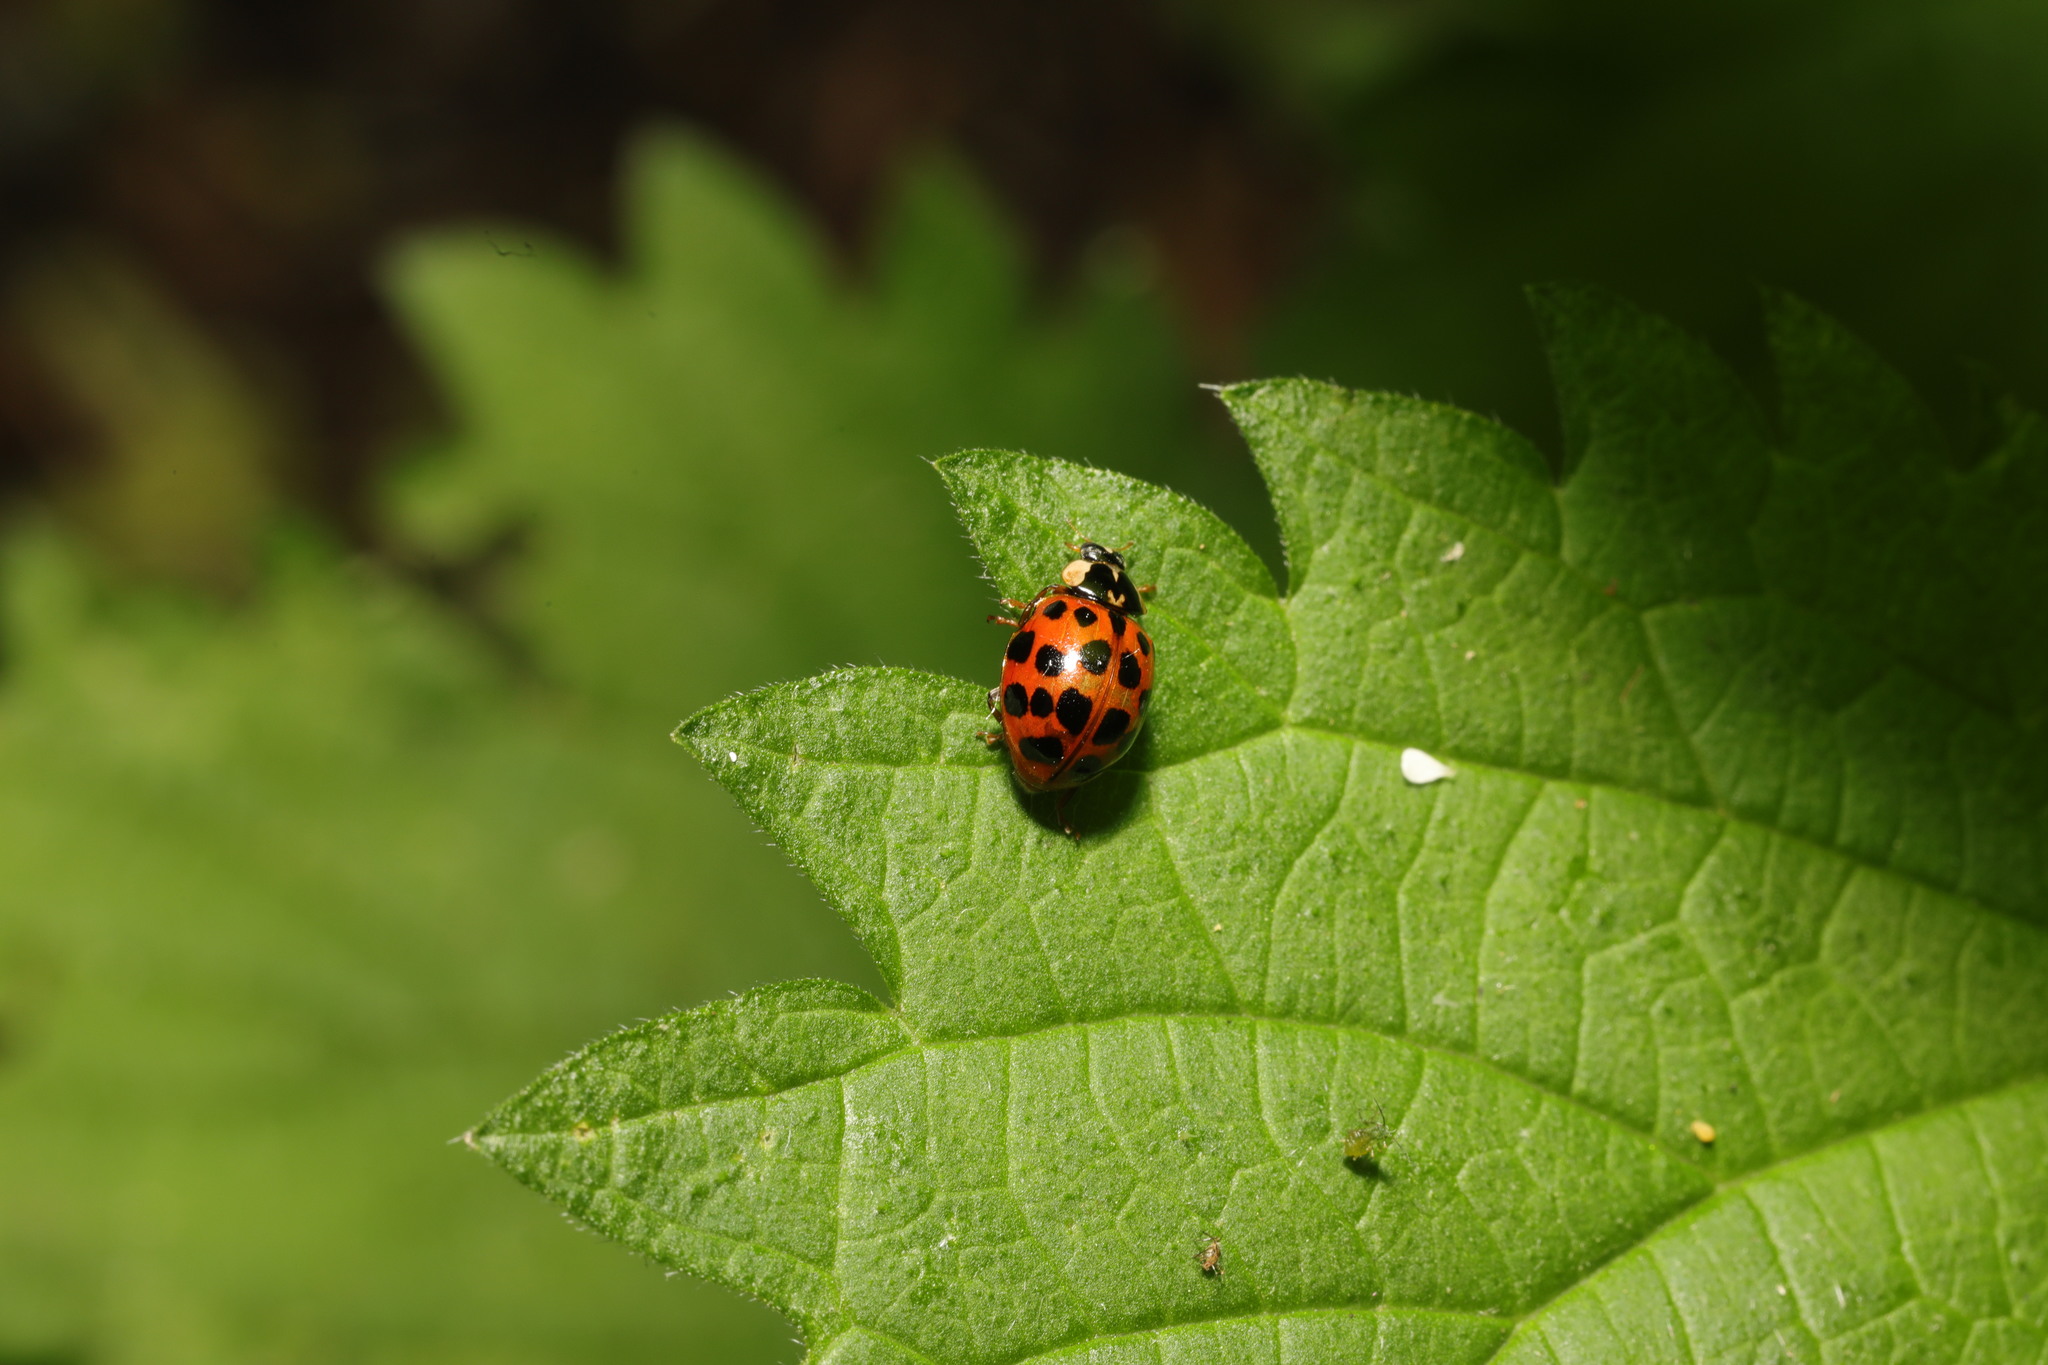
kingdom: Animalia
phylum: Arthropoda
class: Insecta
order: Coleoptera
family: Coccinellidae
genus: Harmonia
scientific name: Harmonia axyridis
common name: Harlequin ladybird
